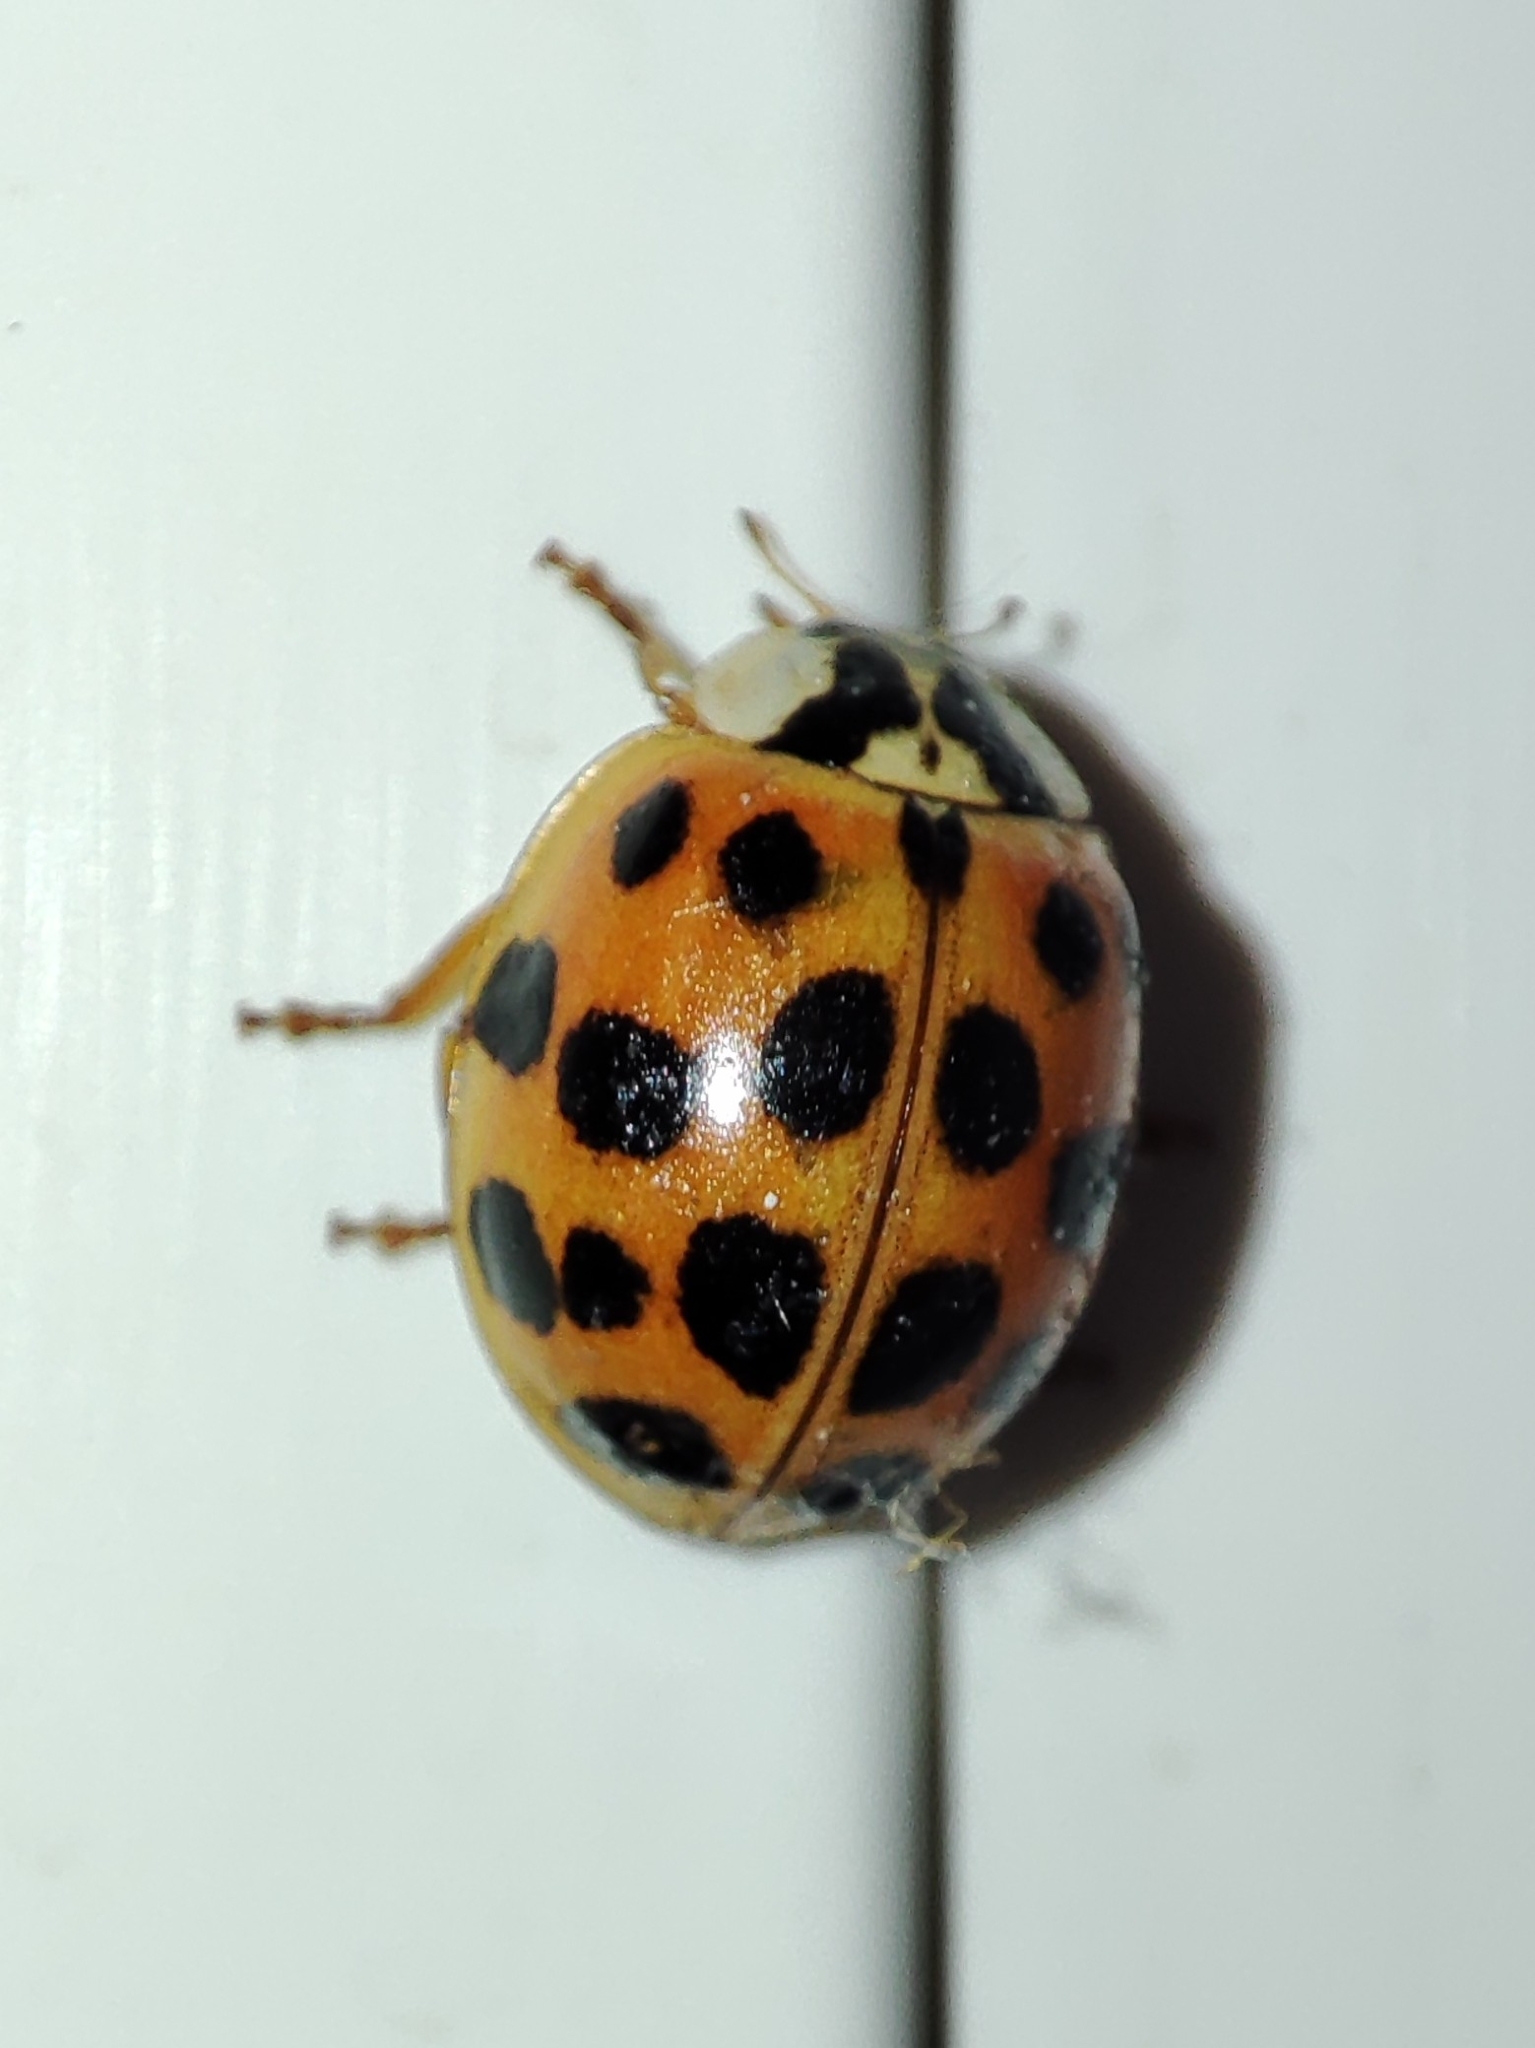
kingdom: Animalia
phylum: Arthropoda
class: Insecta
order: Coleoptera
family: Coccinellidae
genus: Harmonia
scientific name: Harmonia axyridis
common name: Harlequin ladybird
